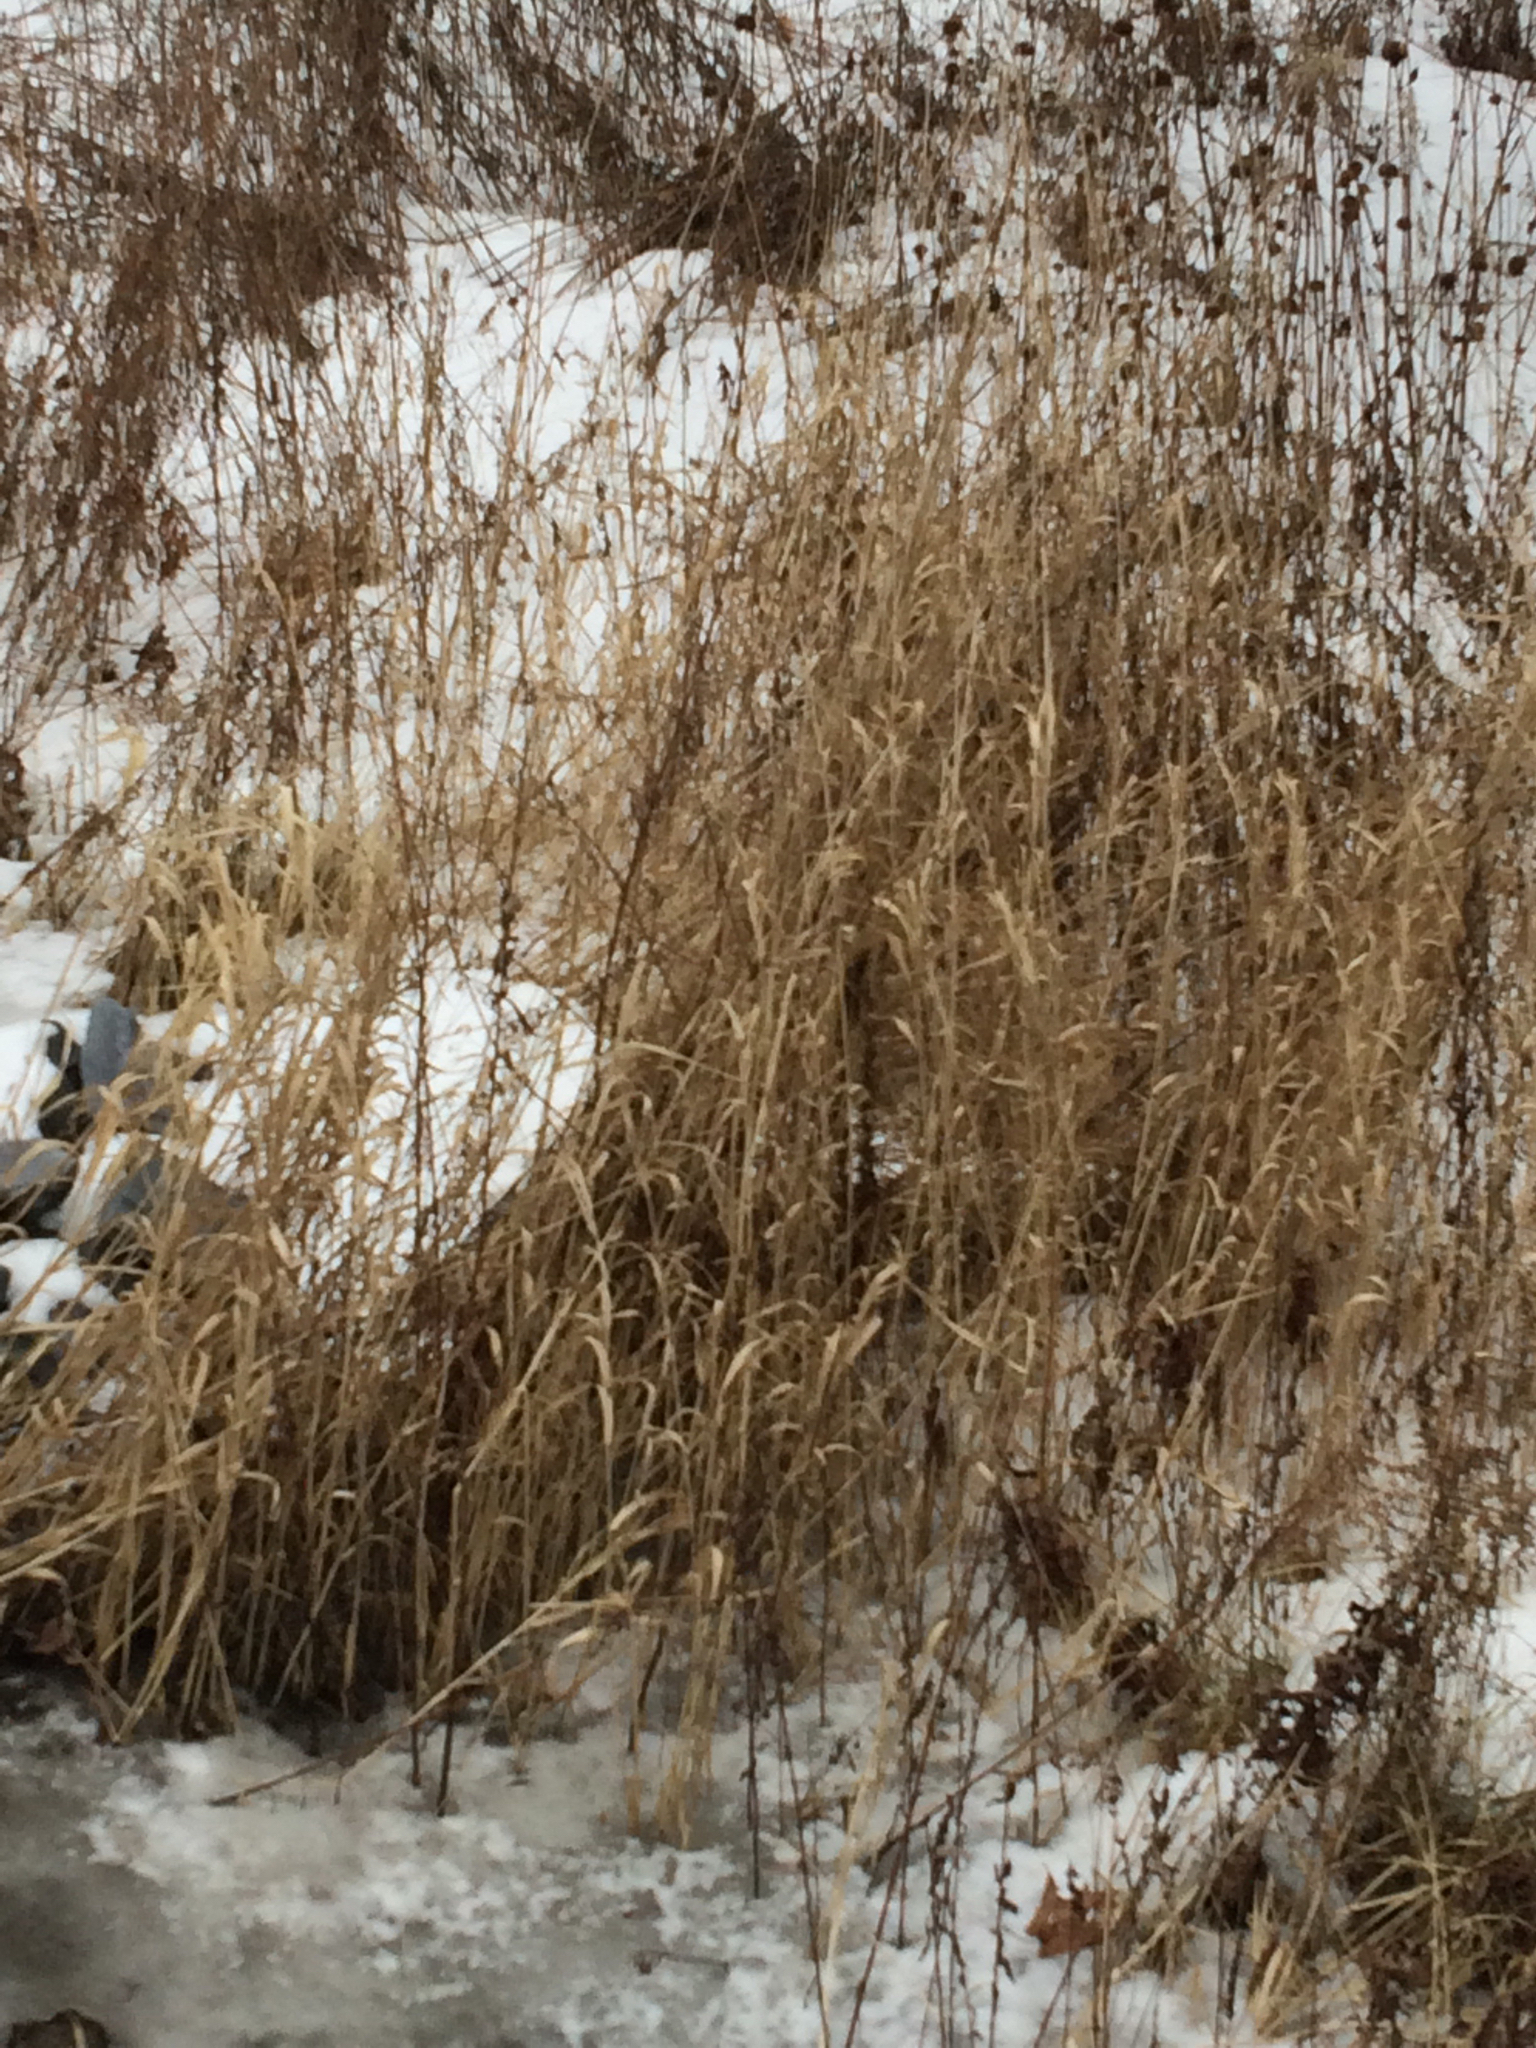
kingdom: Plantae
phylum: Tracheophyta
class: Liliopsida
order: Poales
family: Poaceae
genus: Phalaris
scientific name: Phalaris arundinacea
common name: Reed canary-grass
